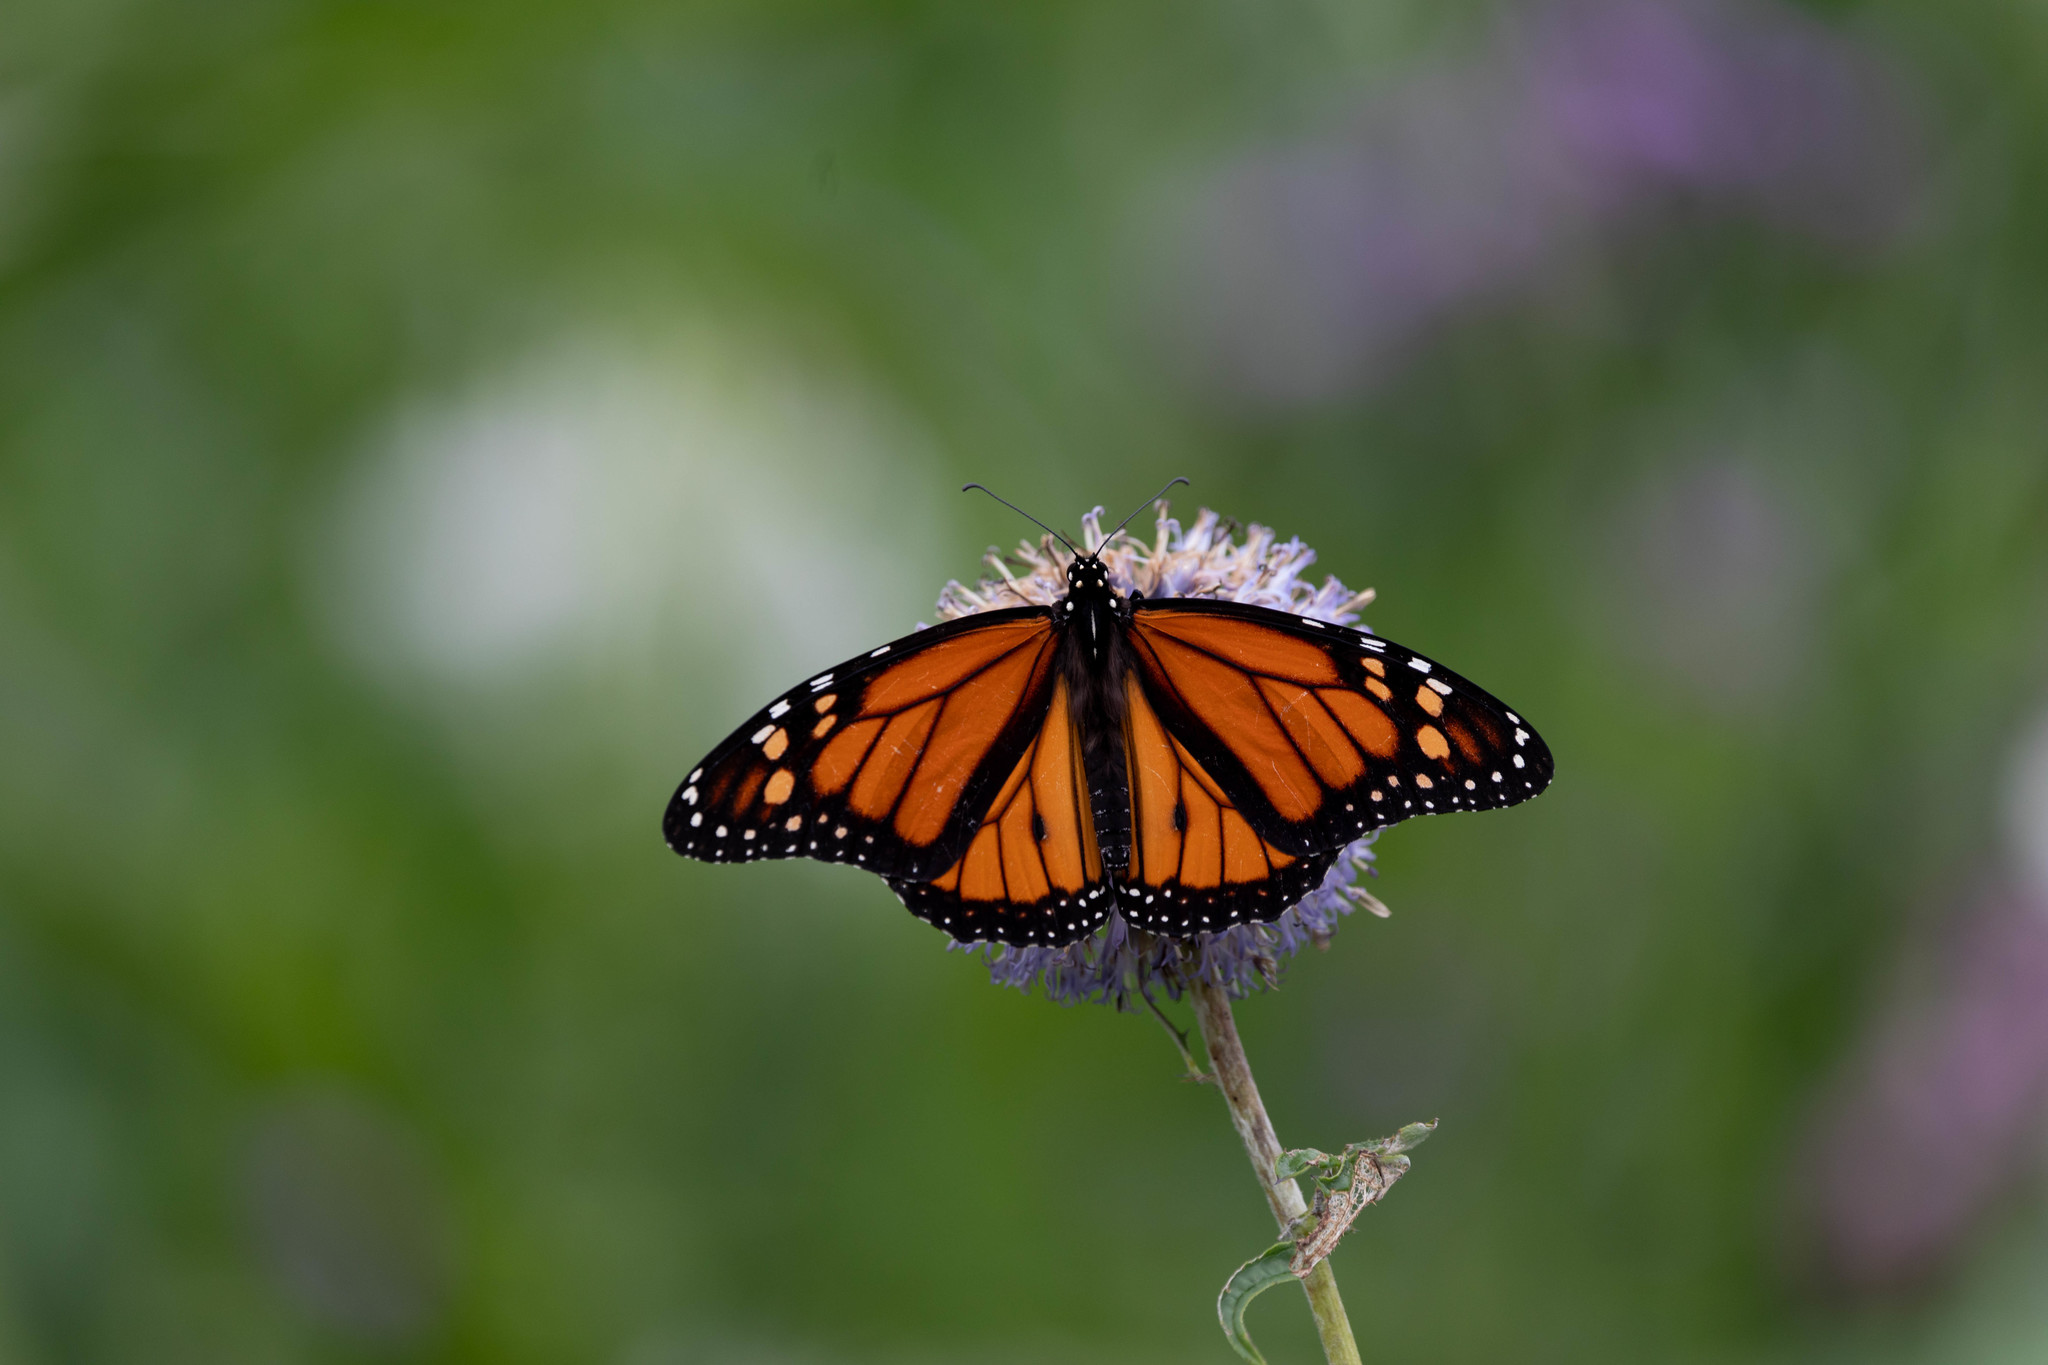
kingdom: Animalia
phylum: Arthropoda
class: Insecta
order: Lepidoptera
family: Nymphalidae
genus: Danaus
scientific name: Danaus plexippus
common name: Monarch
